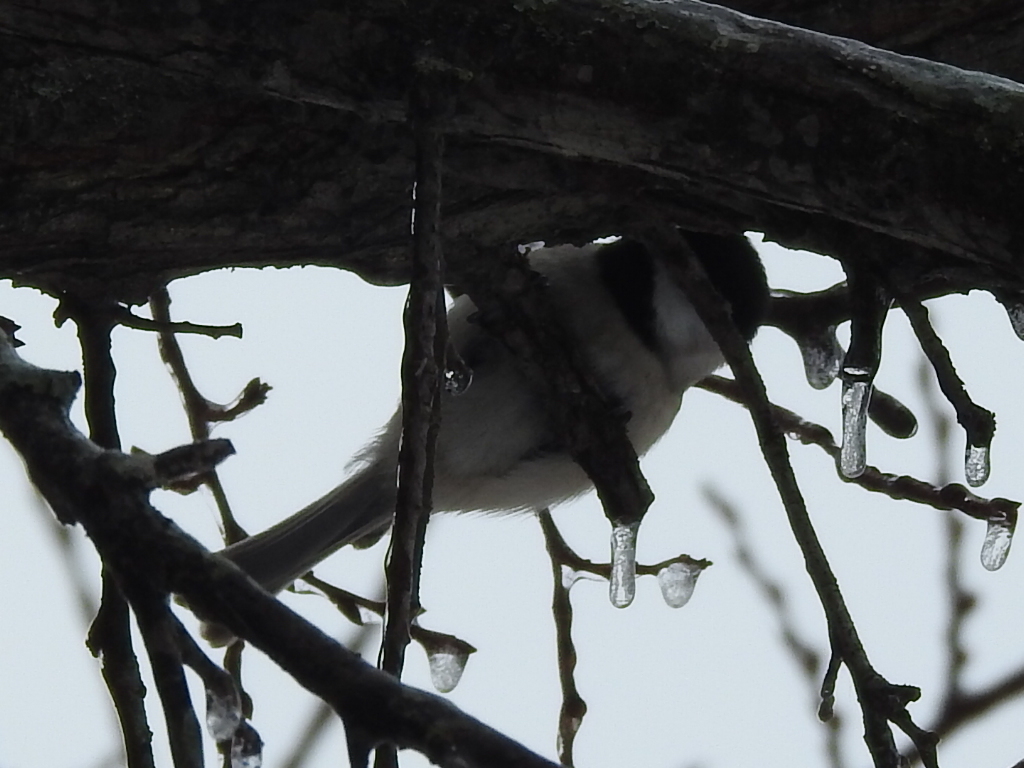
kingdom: Animalia
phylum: Chordata
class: Aves
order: Passeriformes
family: Paridae
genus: Poecile
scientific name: Poecile carolinensis
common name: Carolina chickadee
